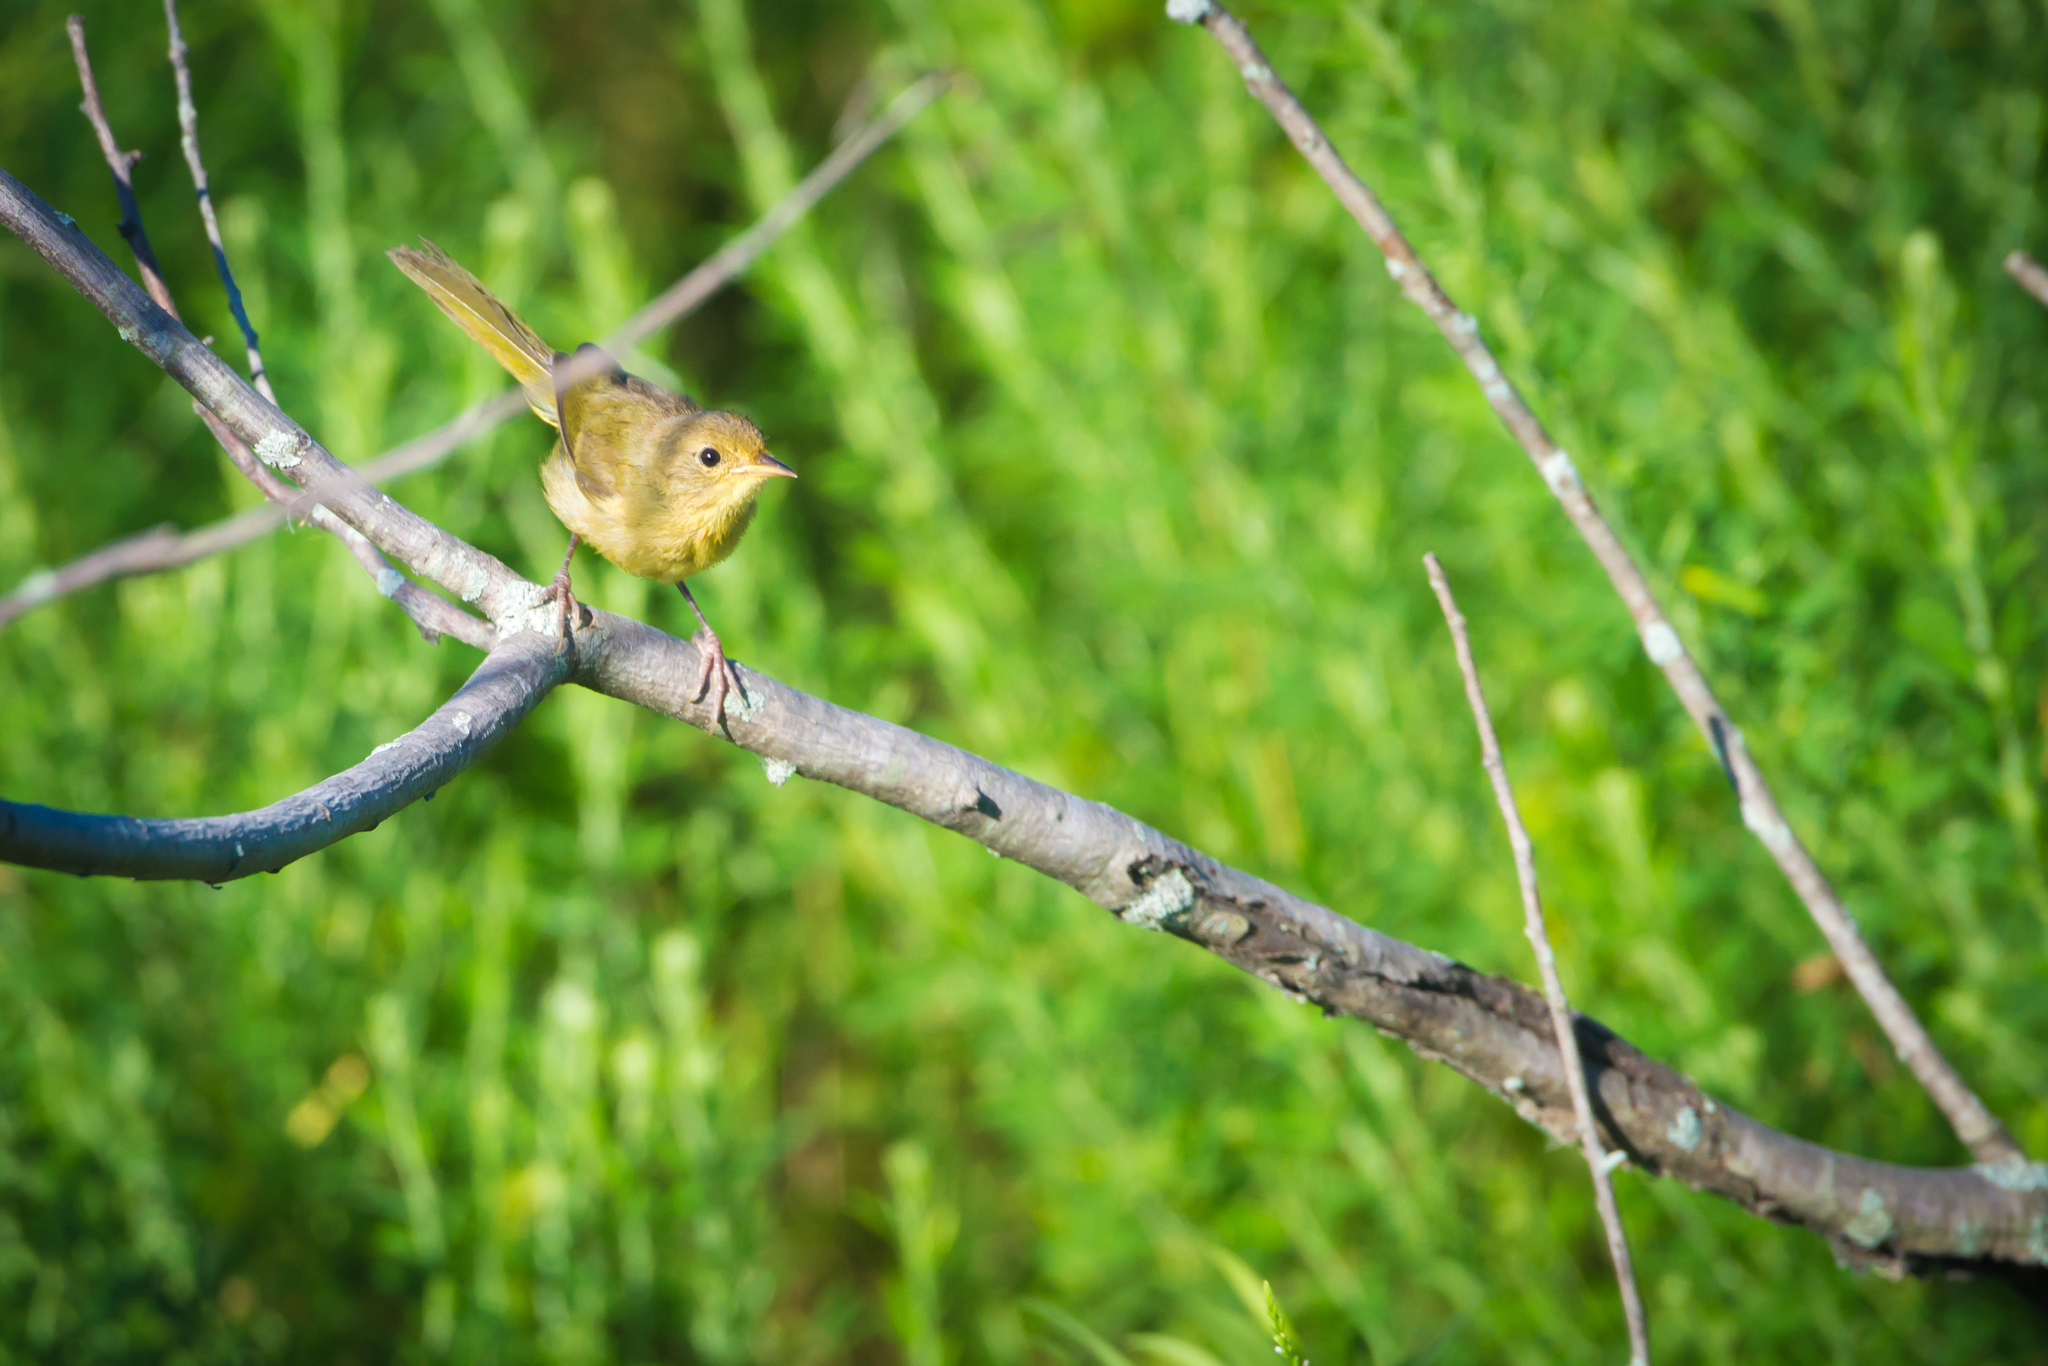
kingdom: Animalia
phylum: Chordata
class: Aves
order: Passeriformes
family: Parulidae
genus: Geothlypis
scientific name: Geothlypis trichas
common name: Common yellowthroat
